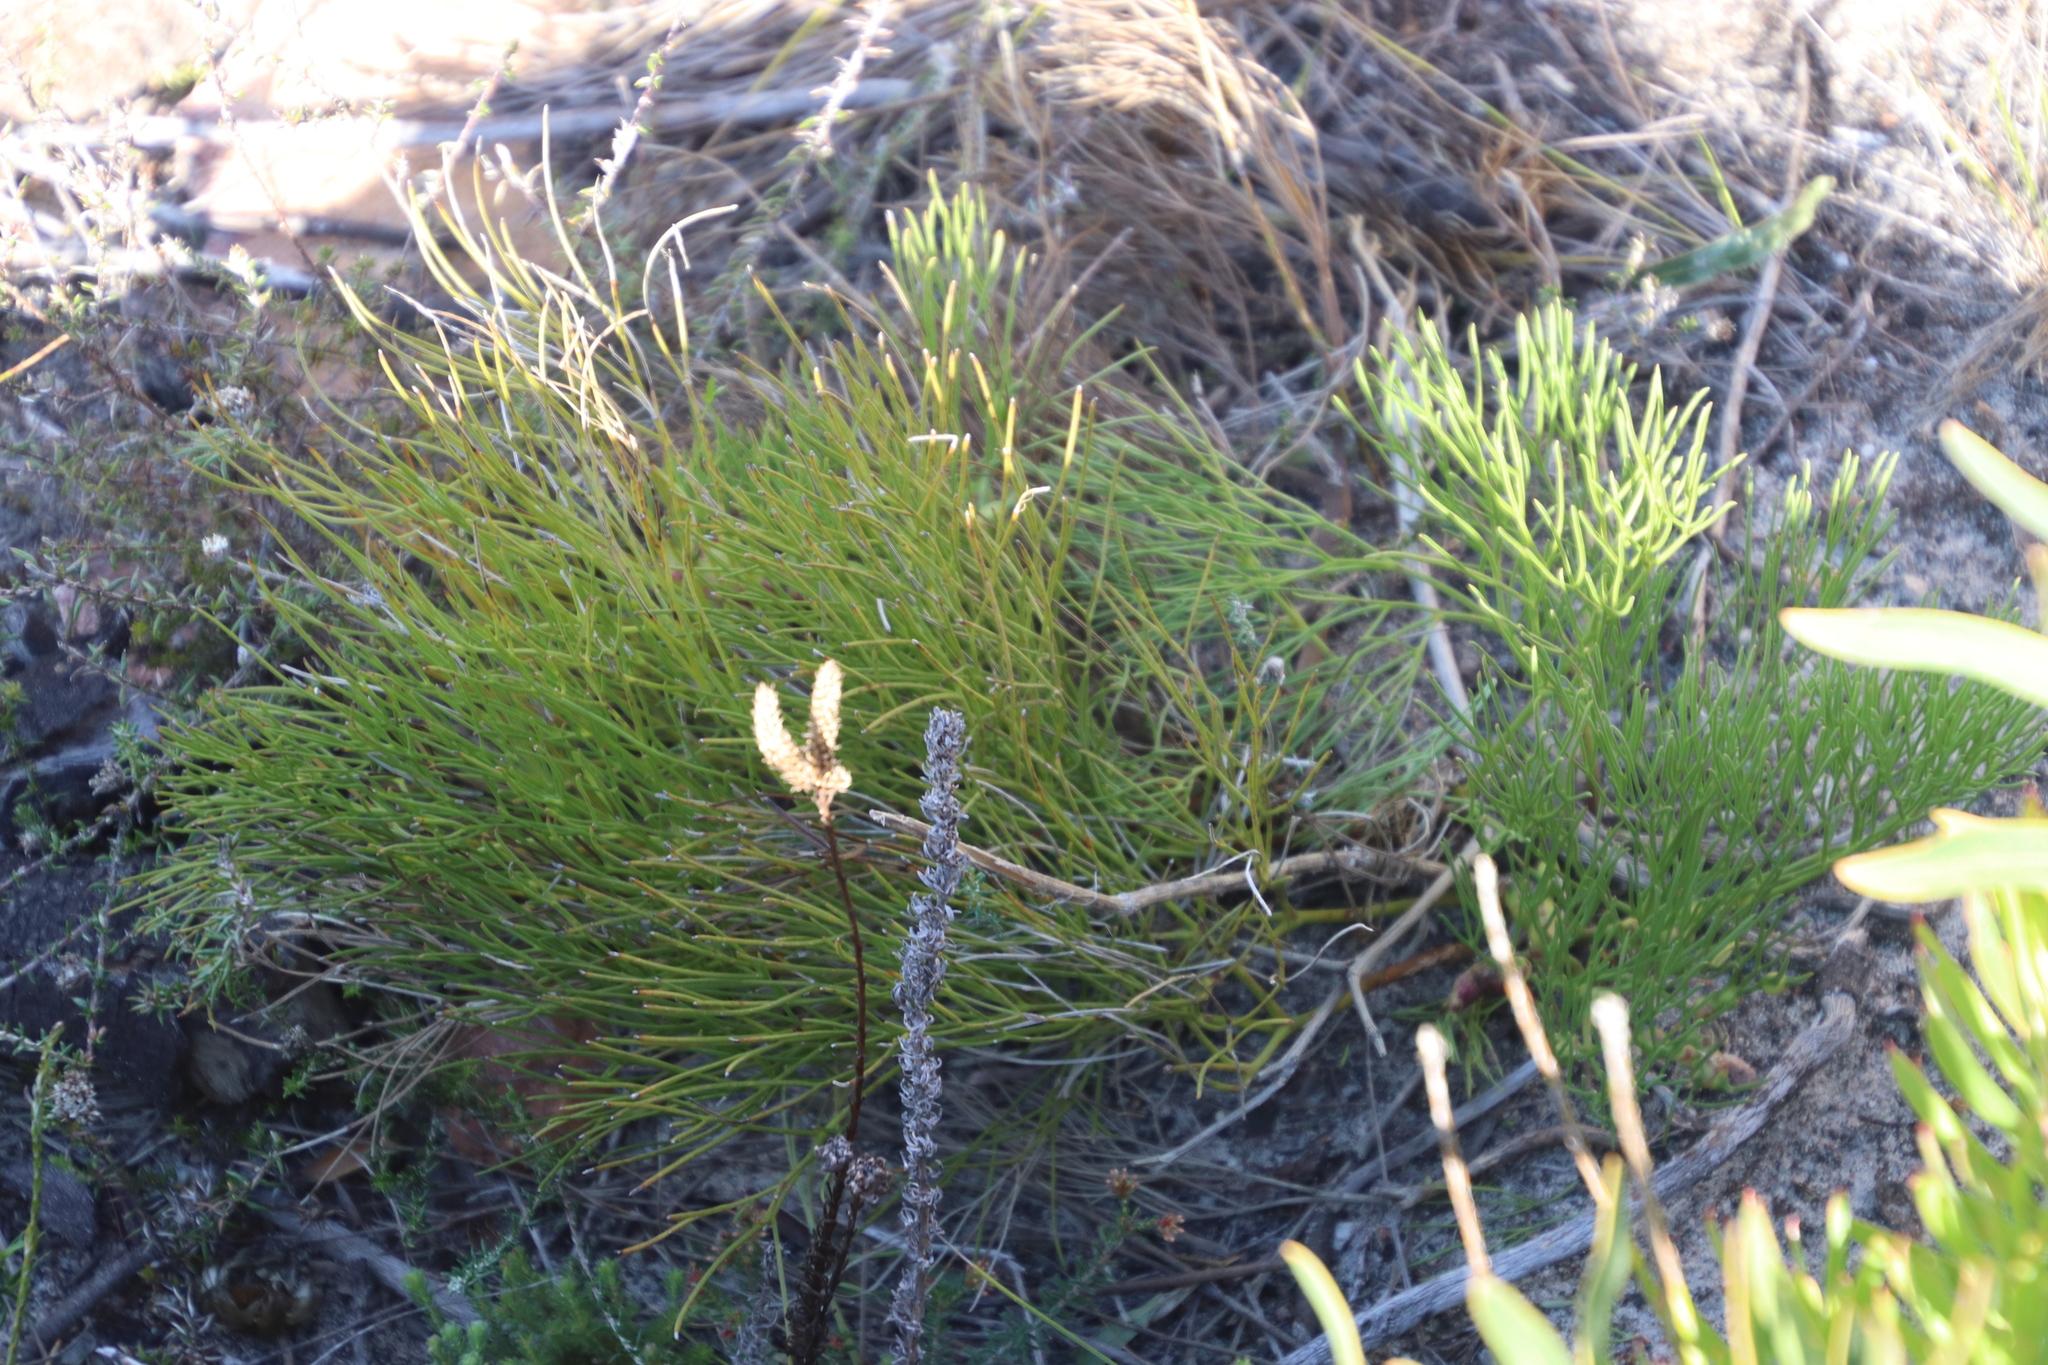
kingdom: Plantae
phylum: Tracheophyta
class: Magnoliopsida
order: Apiales
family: Apiaceae
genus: Nanobubon
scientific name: Nanobubon strictum
